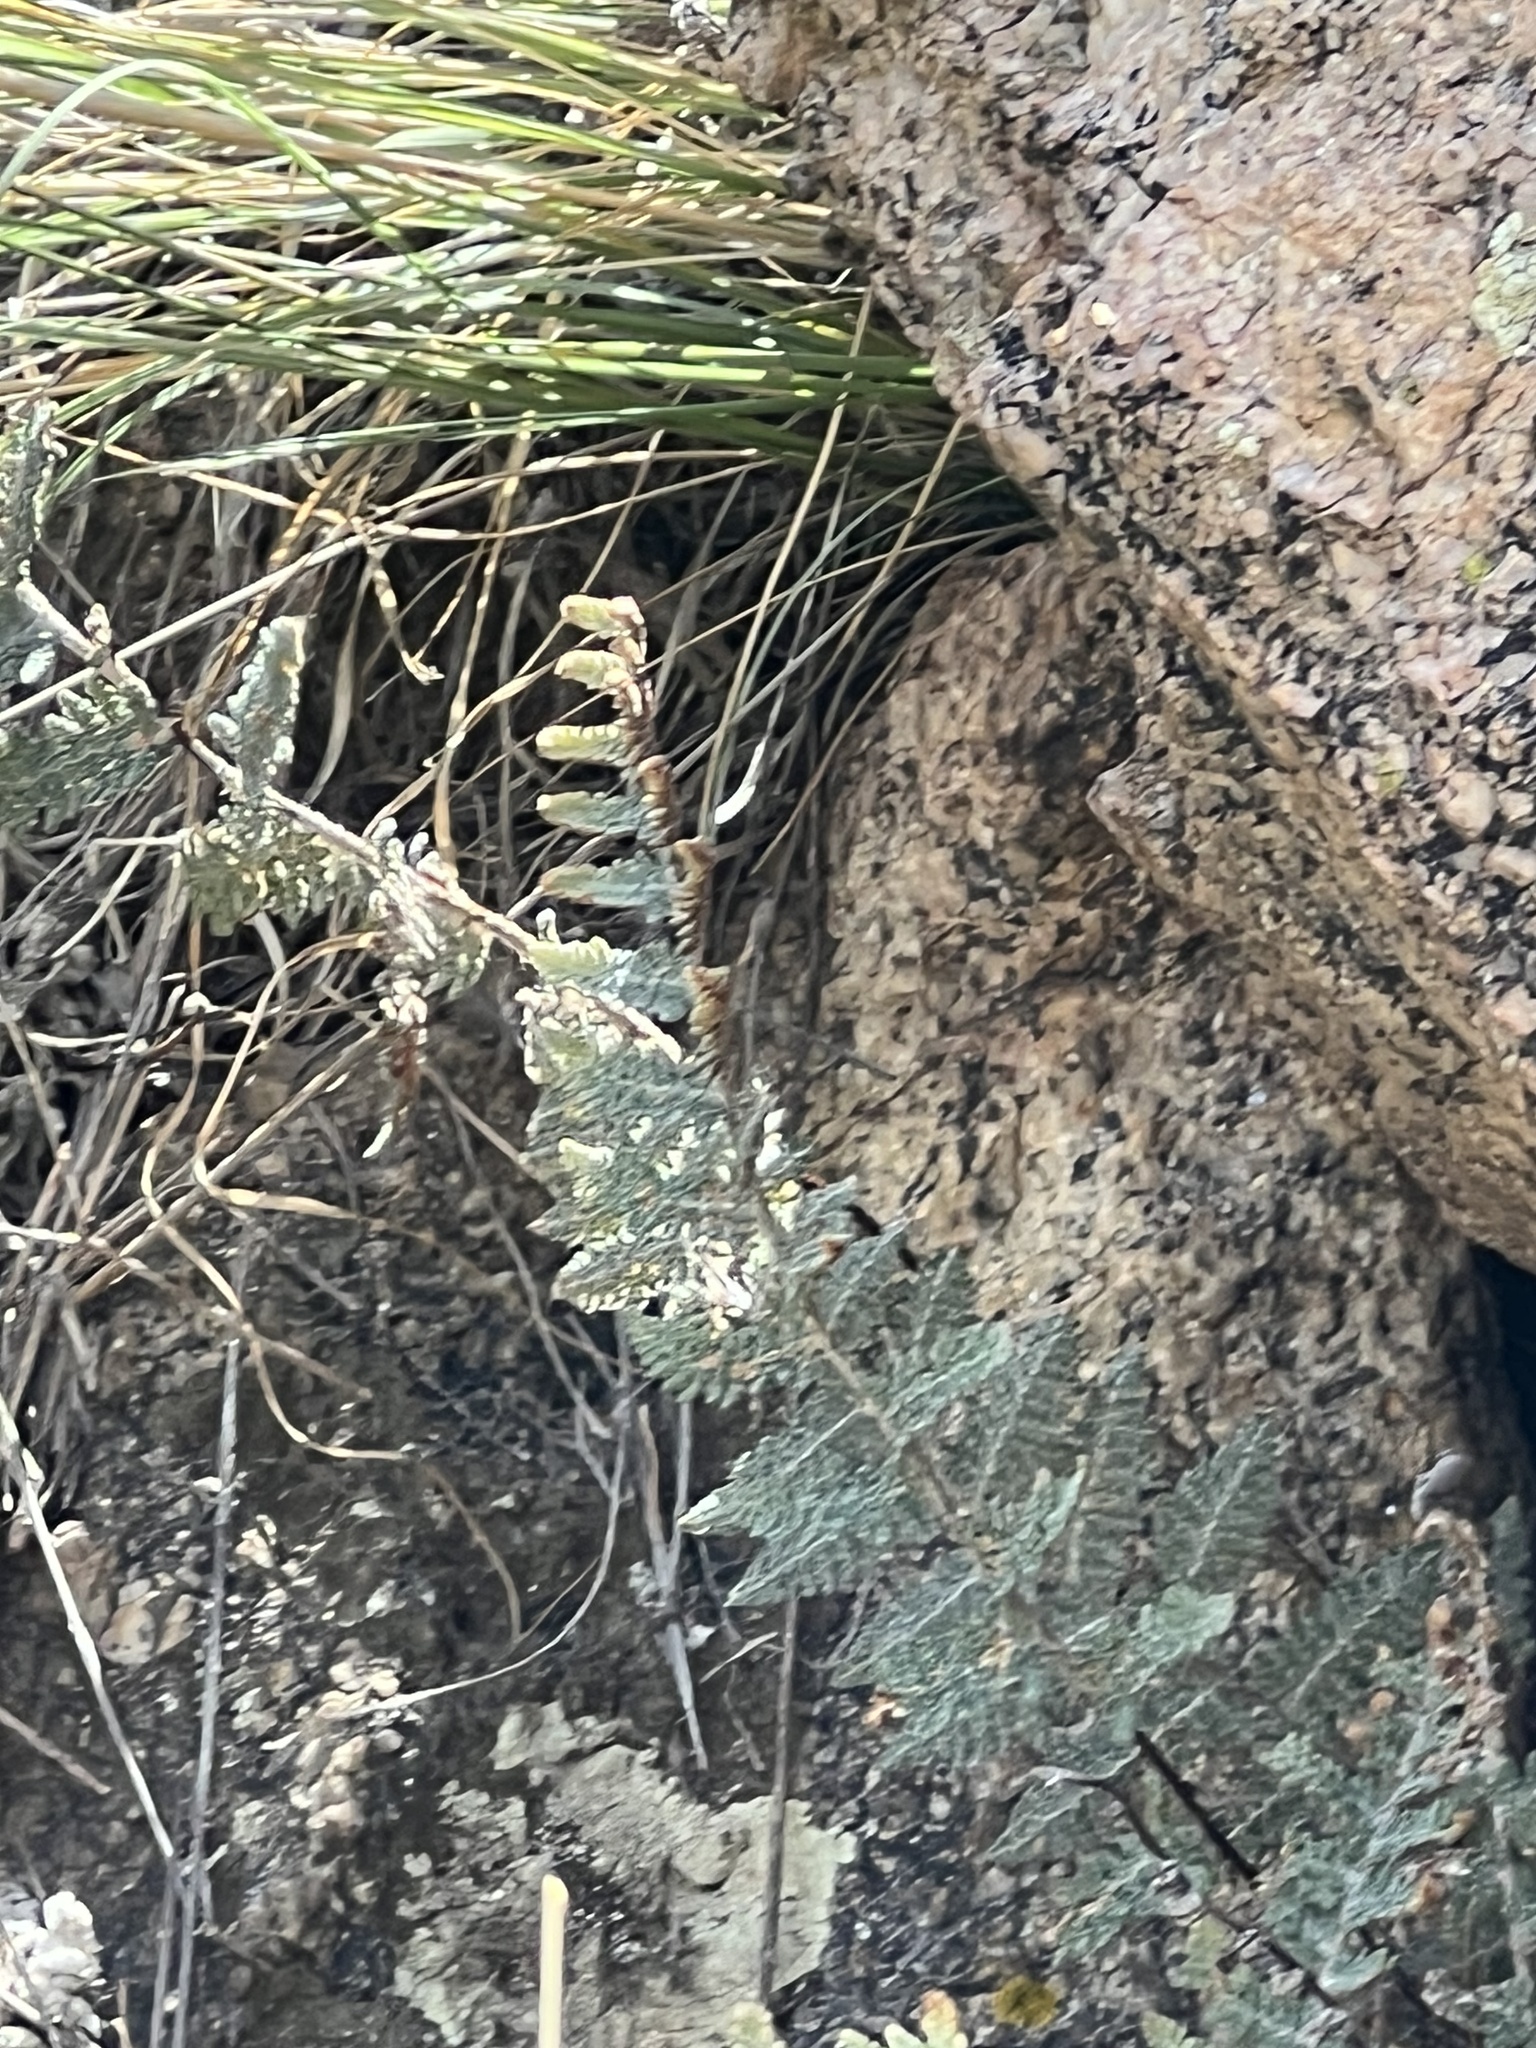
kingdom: Plantae
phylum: Tracheophyta
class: Polypodiopsida
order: Polypodiales
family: Pteridaceae
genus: Myriopteris
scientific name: Myriopteris lindheimeri
